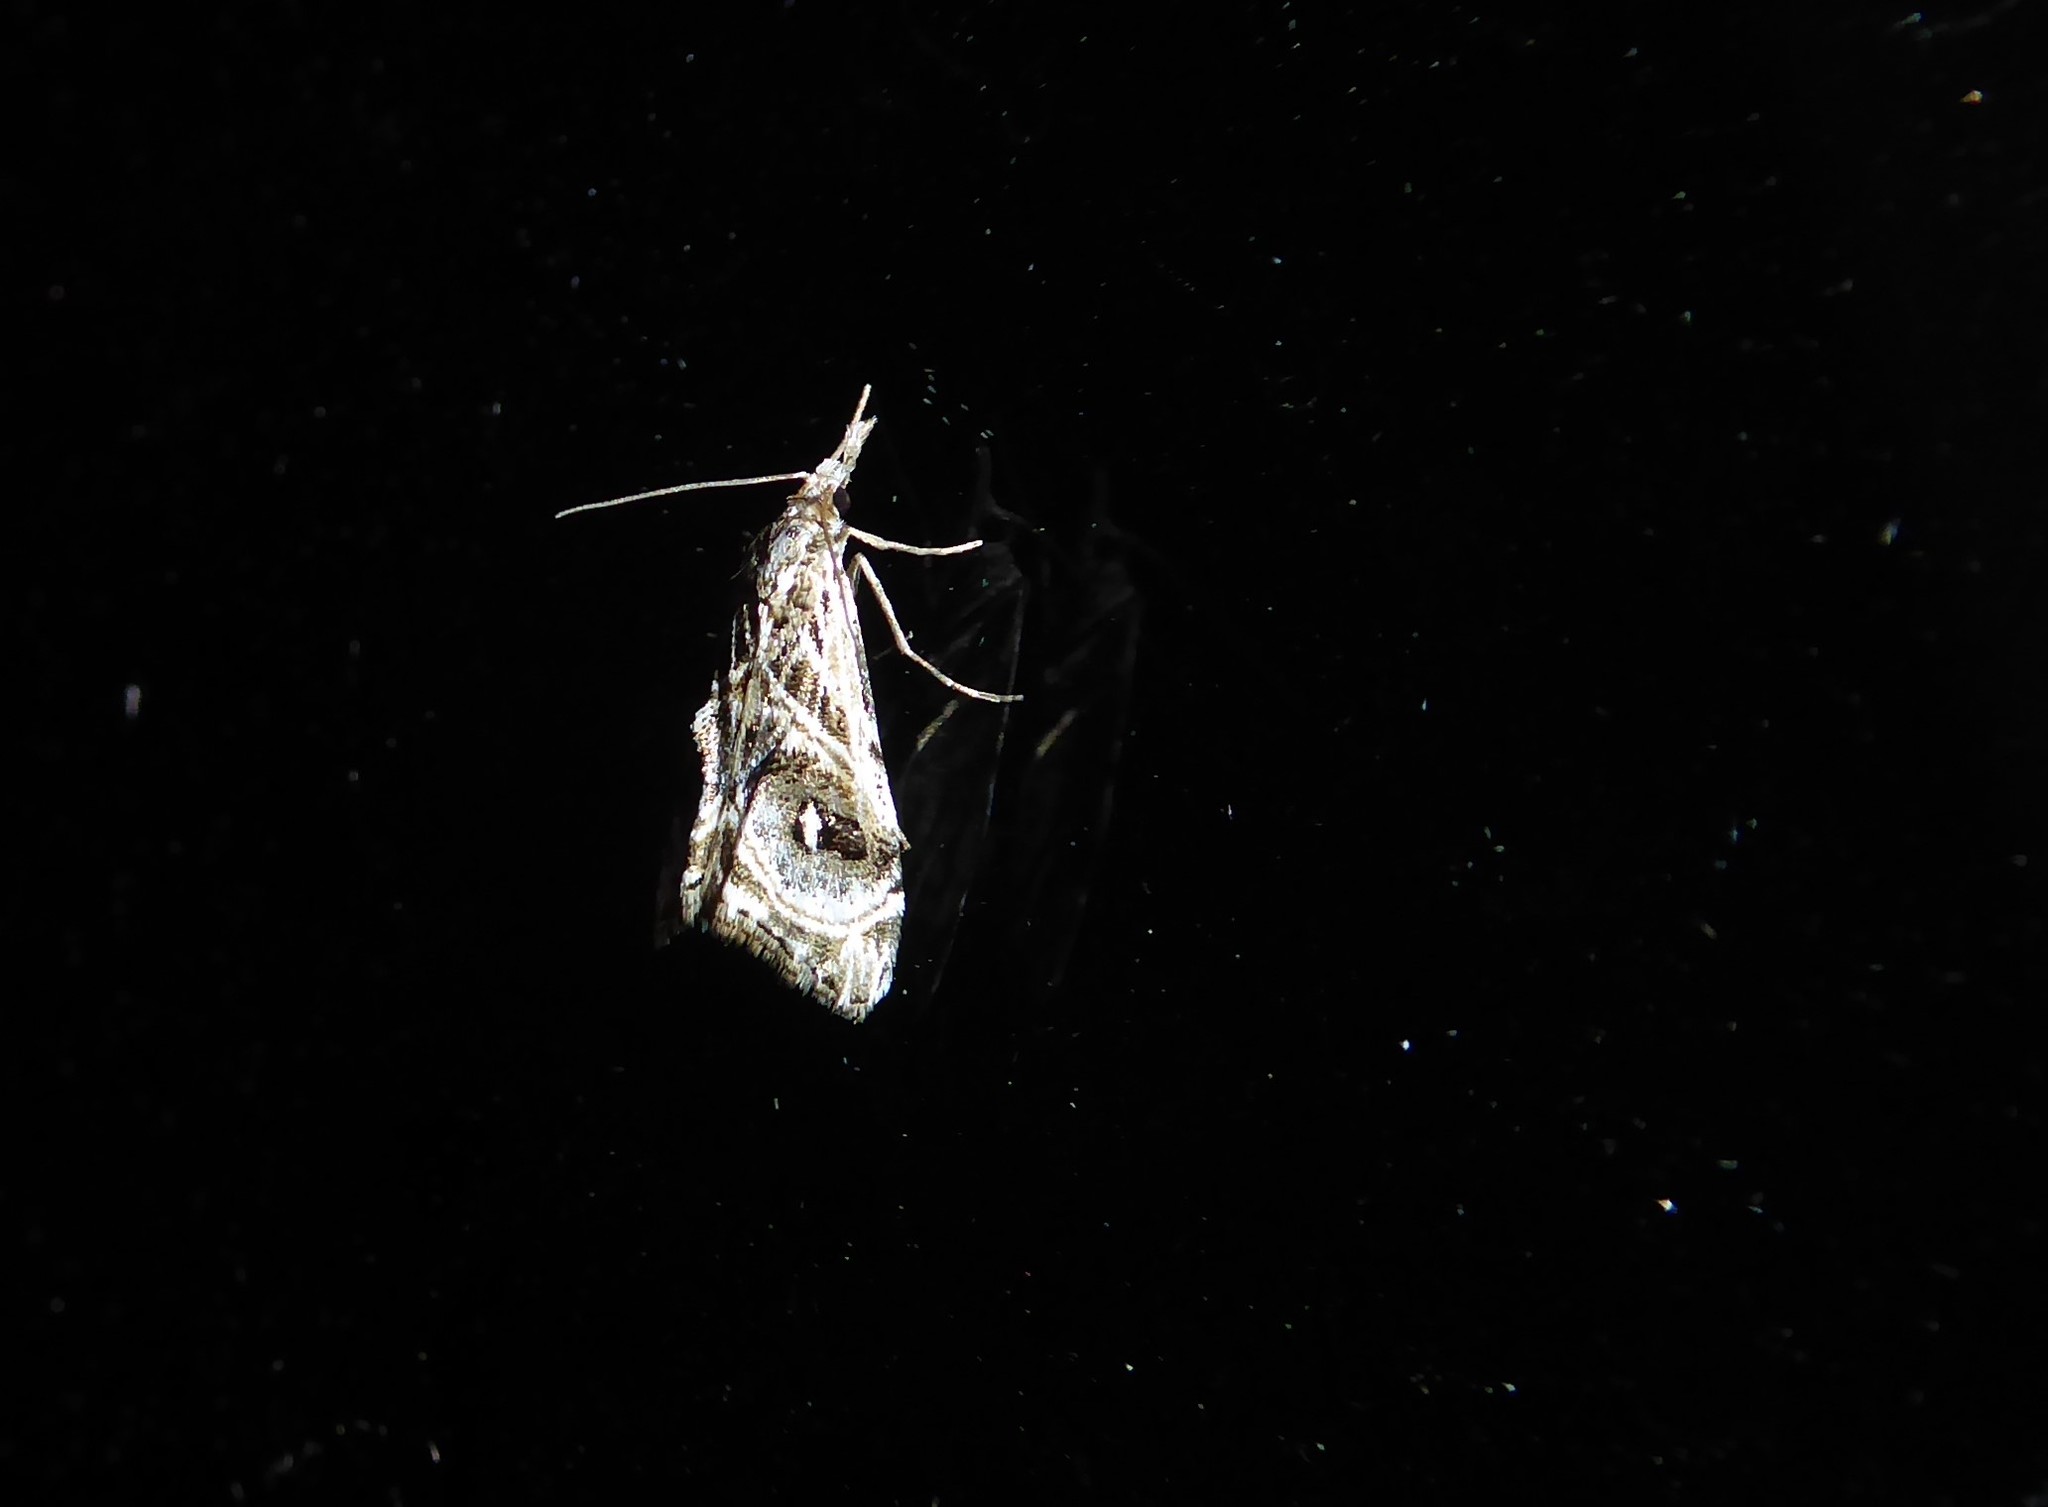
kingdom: Animalia
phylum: Arthropoda
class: Insecta
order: Lepidoptera
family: Crambidae
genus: Gadira
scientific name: Gadira acerella
